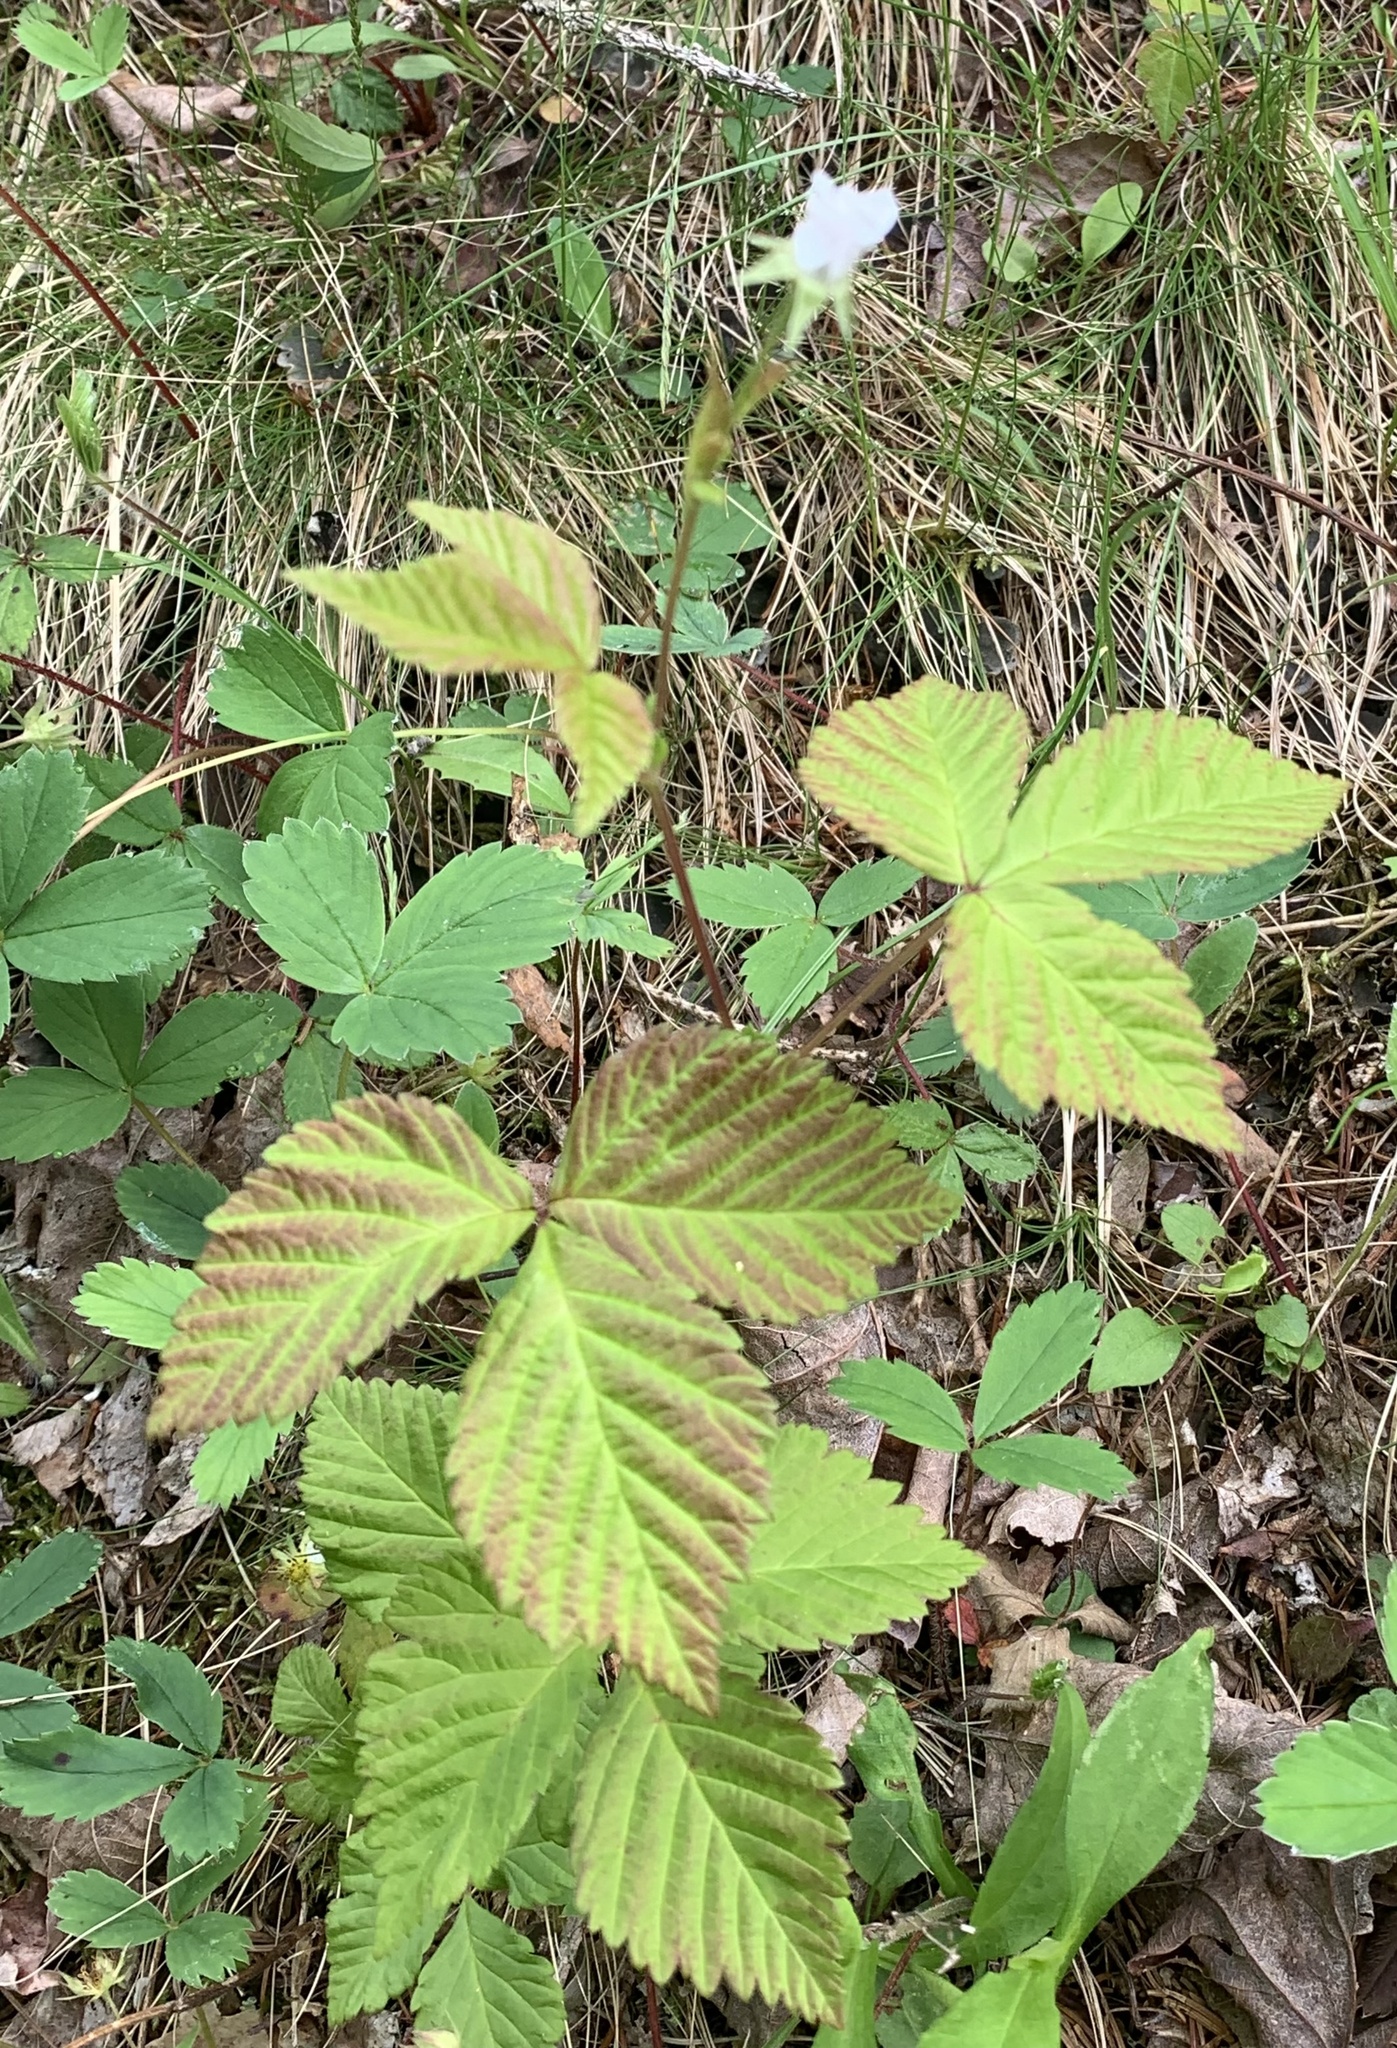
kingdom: Plantae
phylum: Tracheophyta
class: Magnoliopsida
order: Rosales
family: Rosaceae
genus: Rubus
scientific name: Rubus pubescens
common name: Dwarf raspberry
